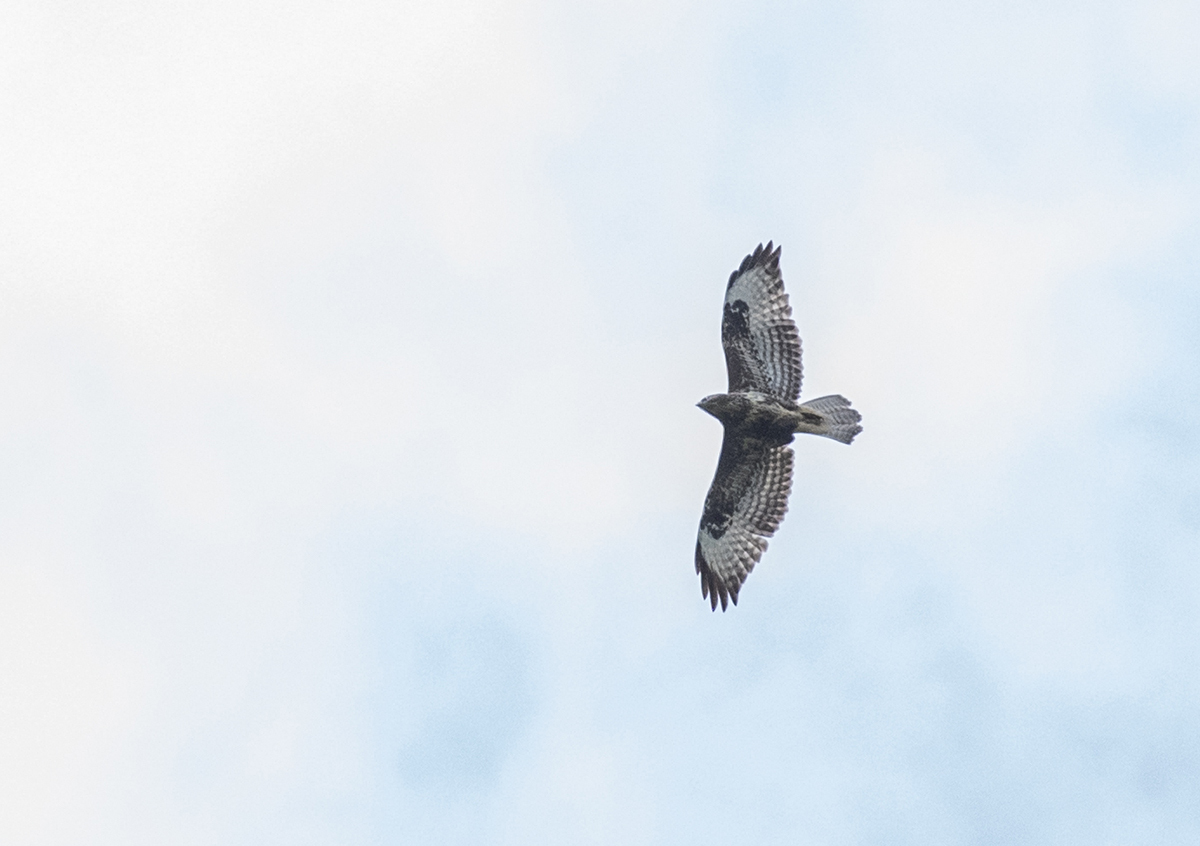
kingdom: Animalia
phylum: Chordata
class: Aves
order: Accipitriformes
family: Accipitridae
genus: Buteo
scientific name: Buteo buteo
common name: Common buzzard
